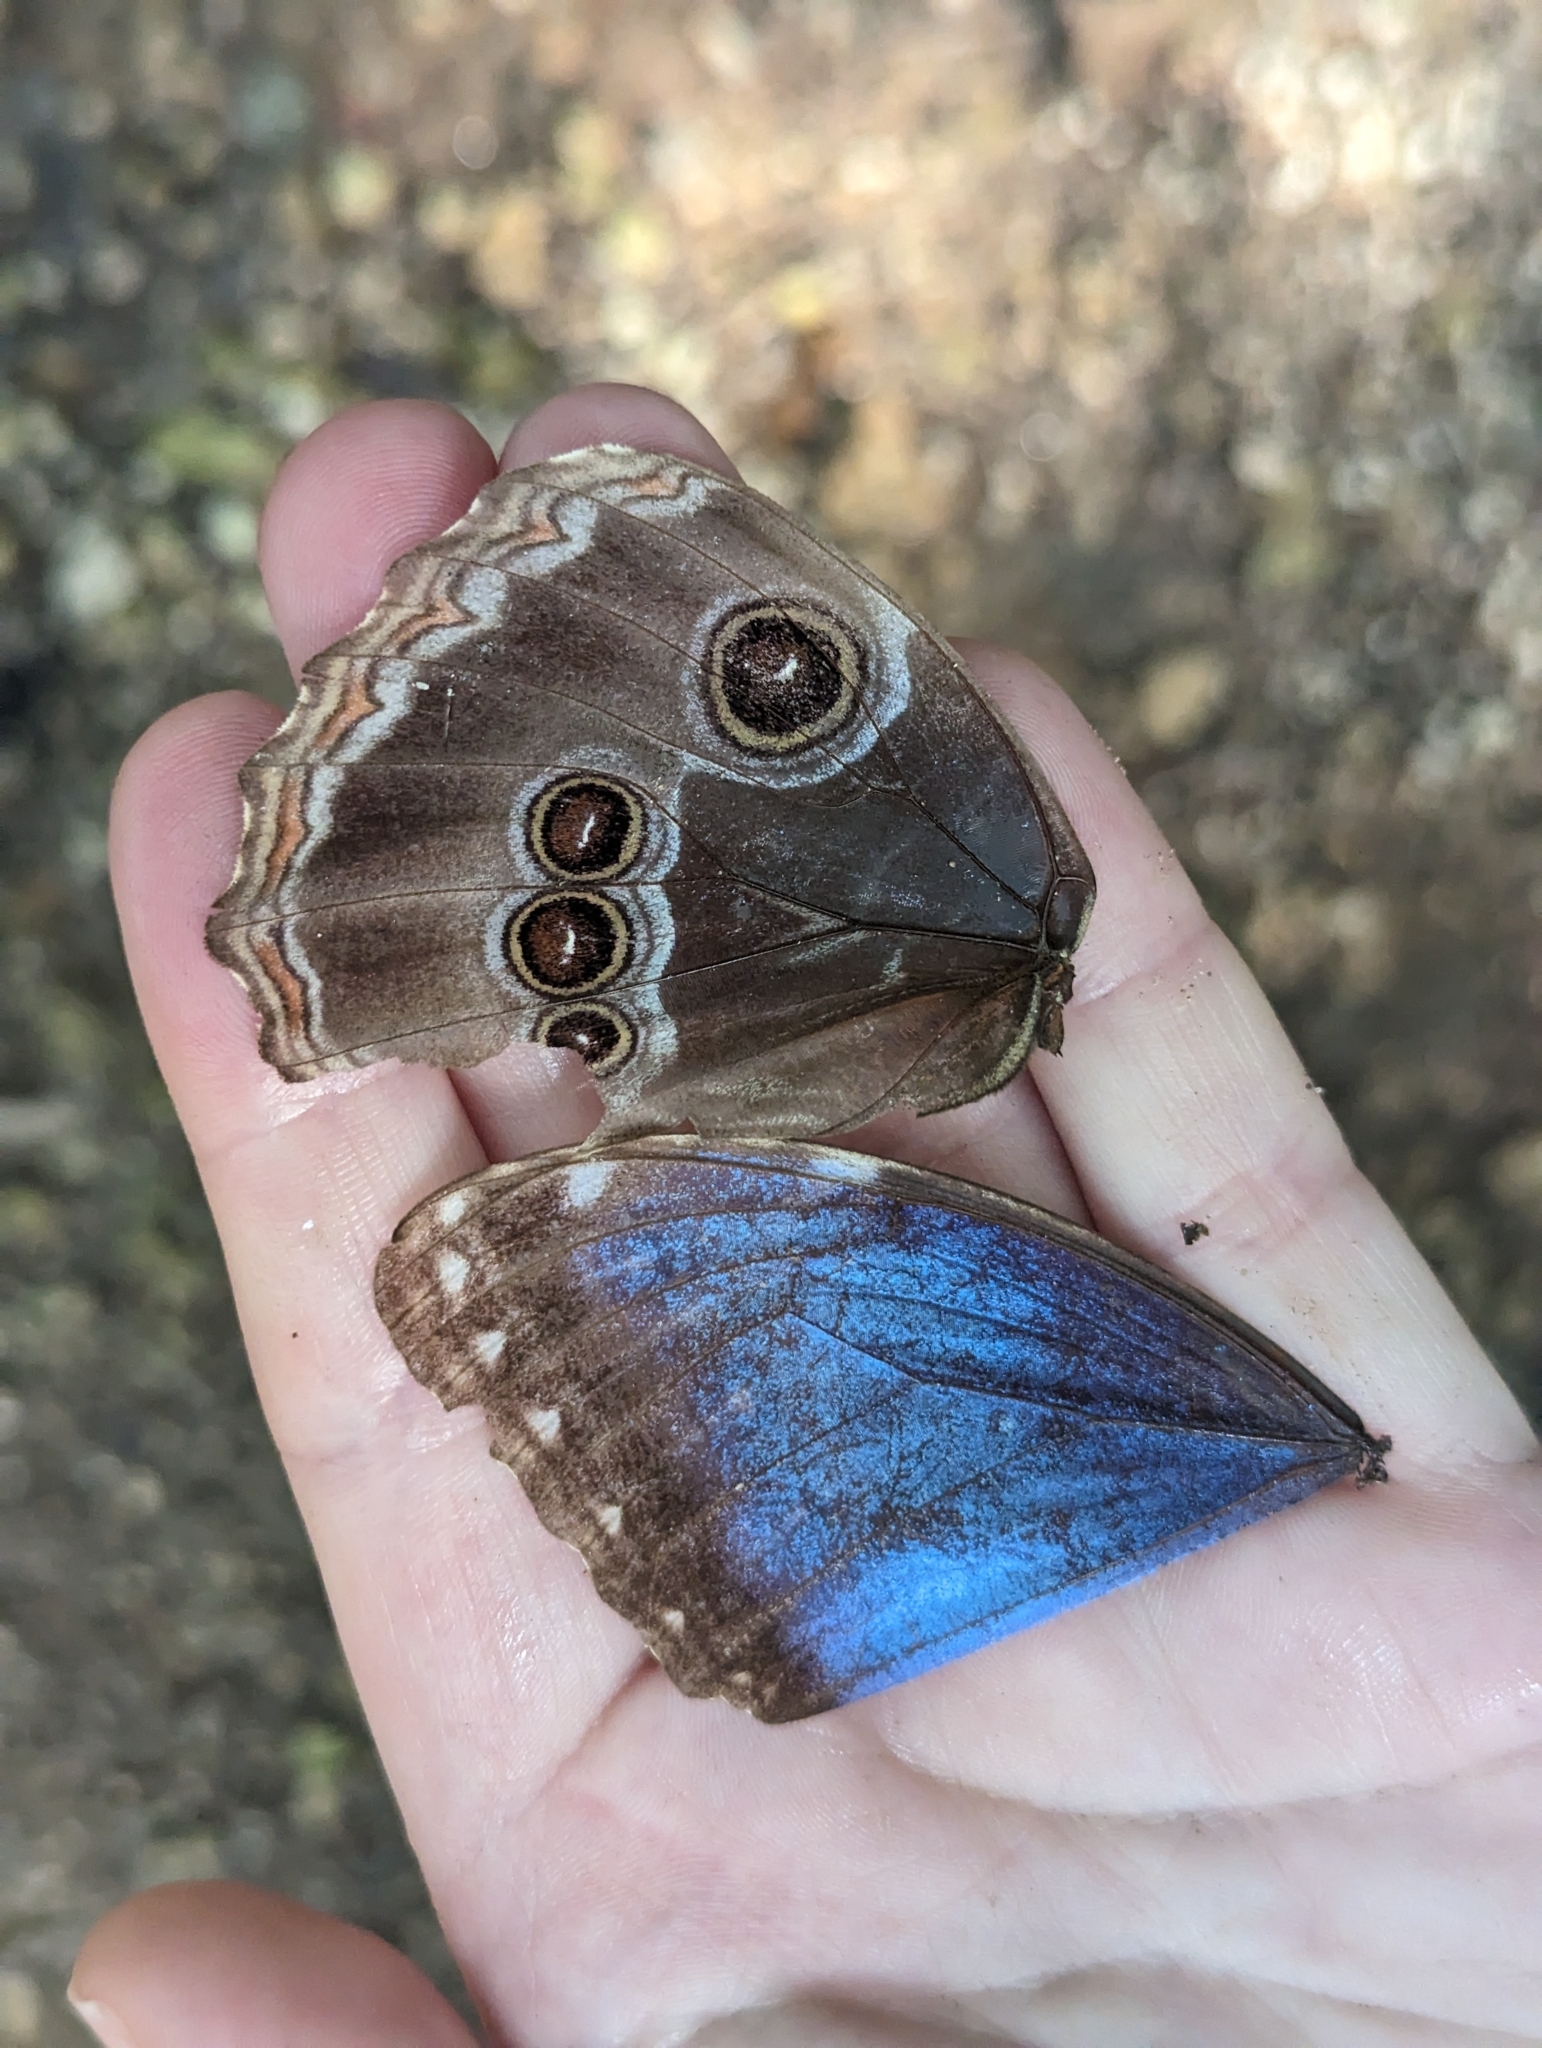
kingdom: Animalia
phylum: Arthropoda
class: Insecta
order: Lepidoptera
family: Nymphalidae
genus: Morpho
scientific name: Morpho helenor
